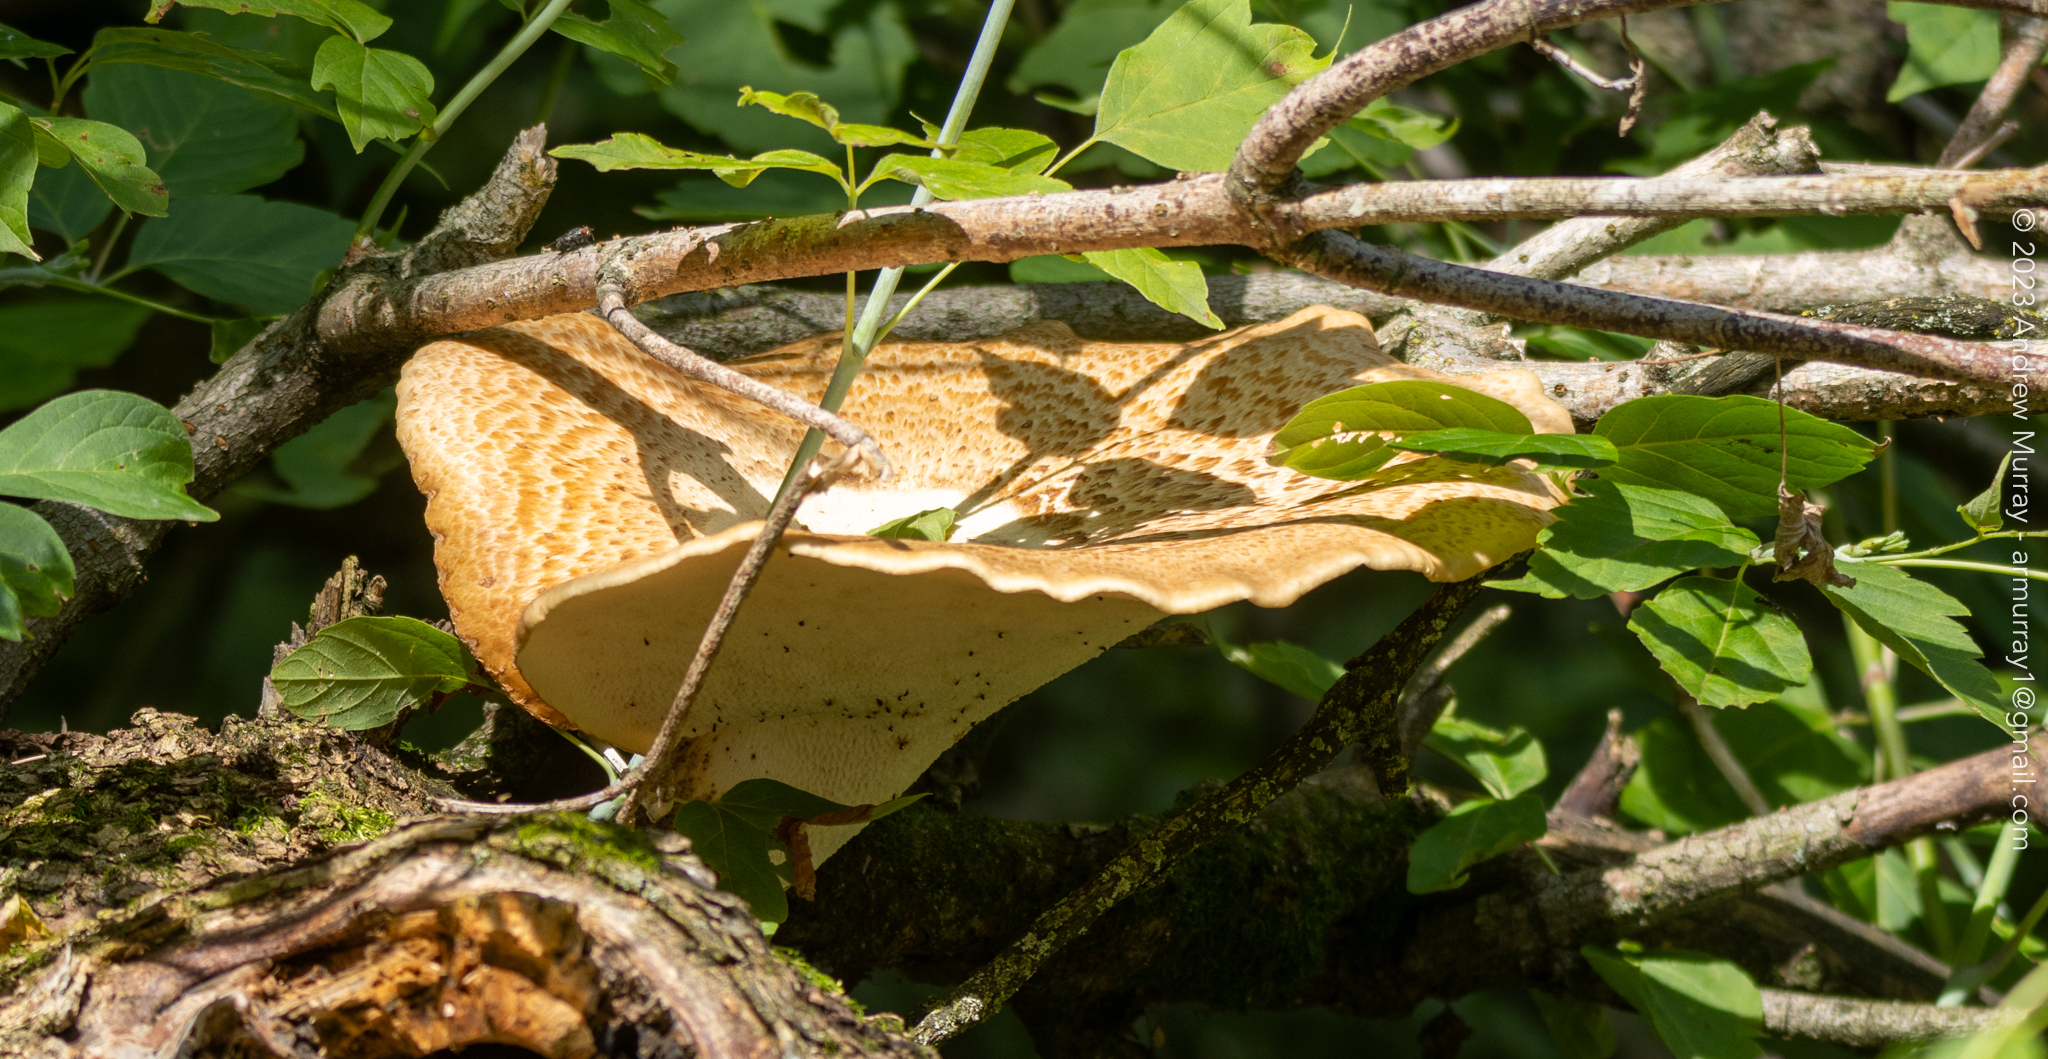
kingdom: Fungi
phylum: Basidiomycota
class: Agaricomycetes
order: Polyporales
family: Polyporaceae
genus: Cerioporus
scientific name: Cerioporus squamosus
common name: Dryad's saddle
